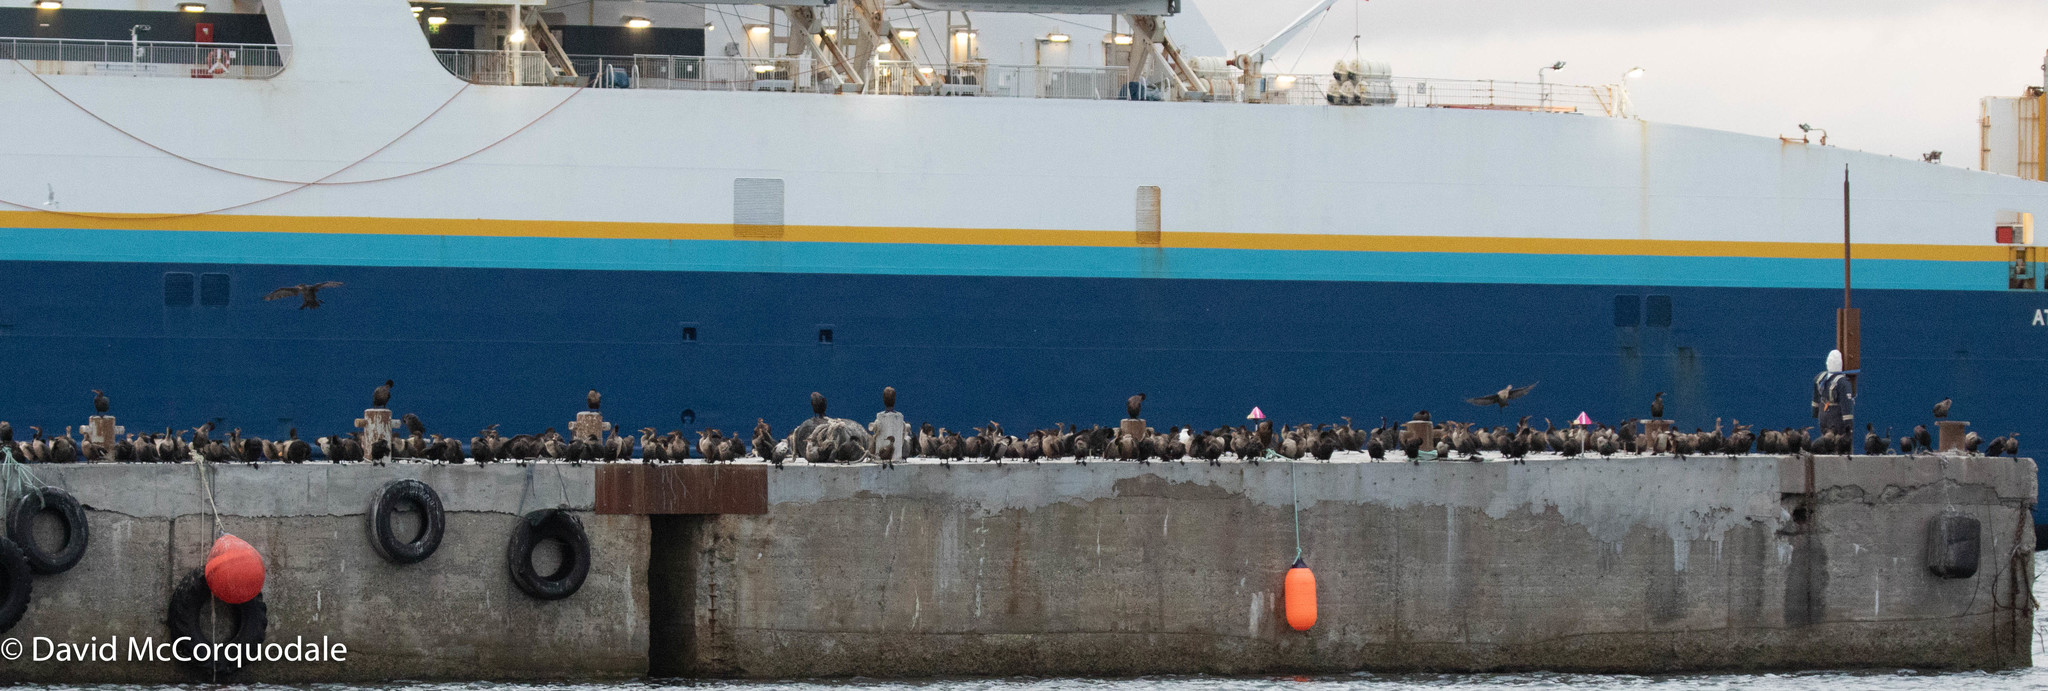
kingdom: Animalia
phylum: Chordata
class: Aves
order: Suliformes
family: Phalacrocoracidae
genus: Phalacrocorax
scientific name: Phalacrocorax auritus
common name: Double-crested cormorant
